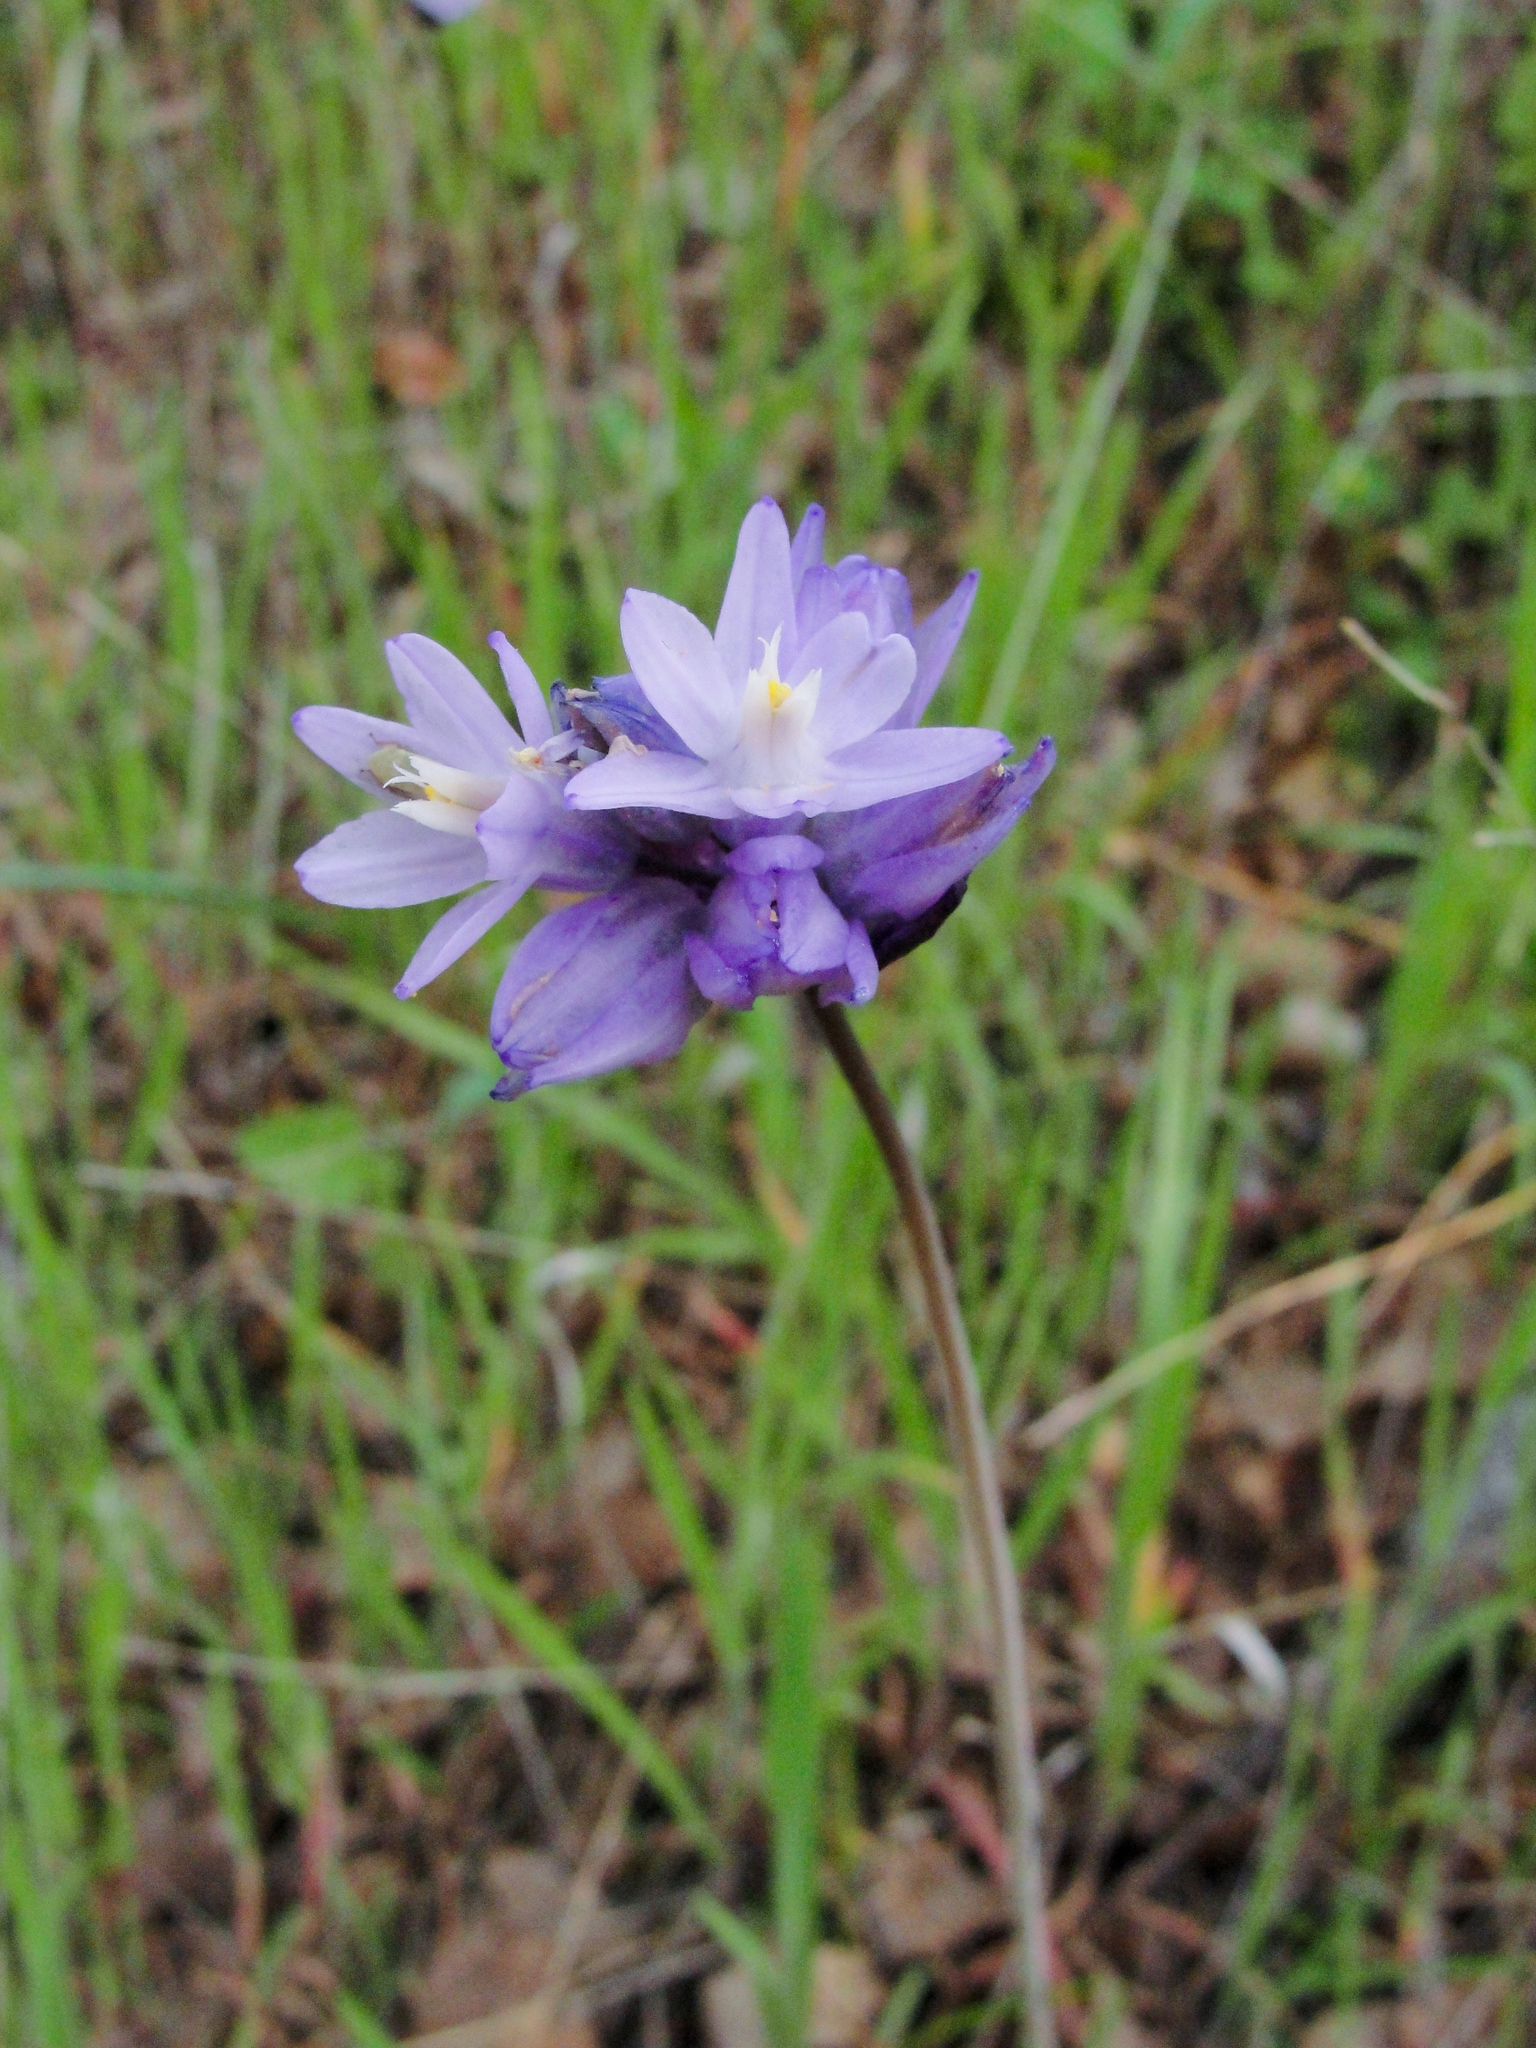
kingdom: Plantae
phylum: Tracheophyta
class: Liliopsida
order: Asparagales
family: Asparagaceae
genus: Dipterostemon
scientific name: Dipterostemon capitatus
